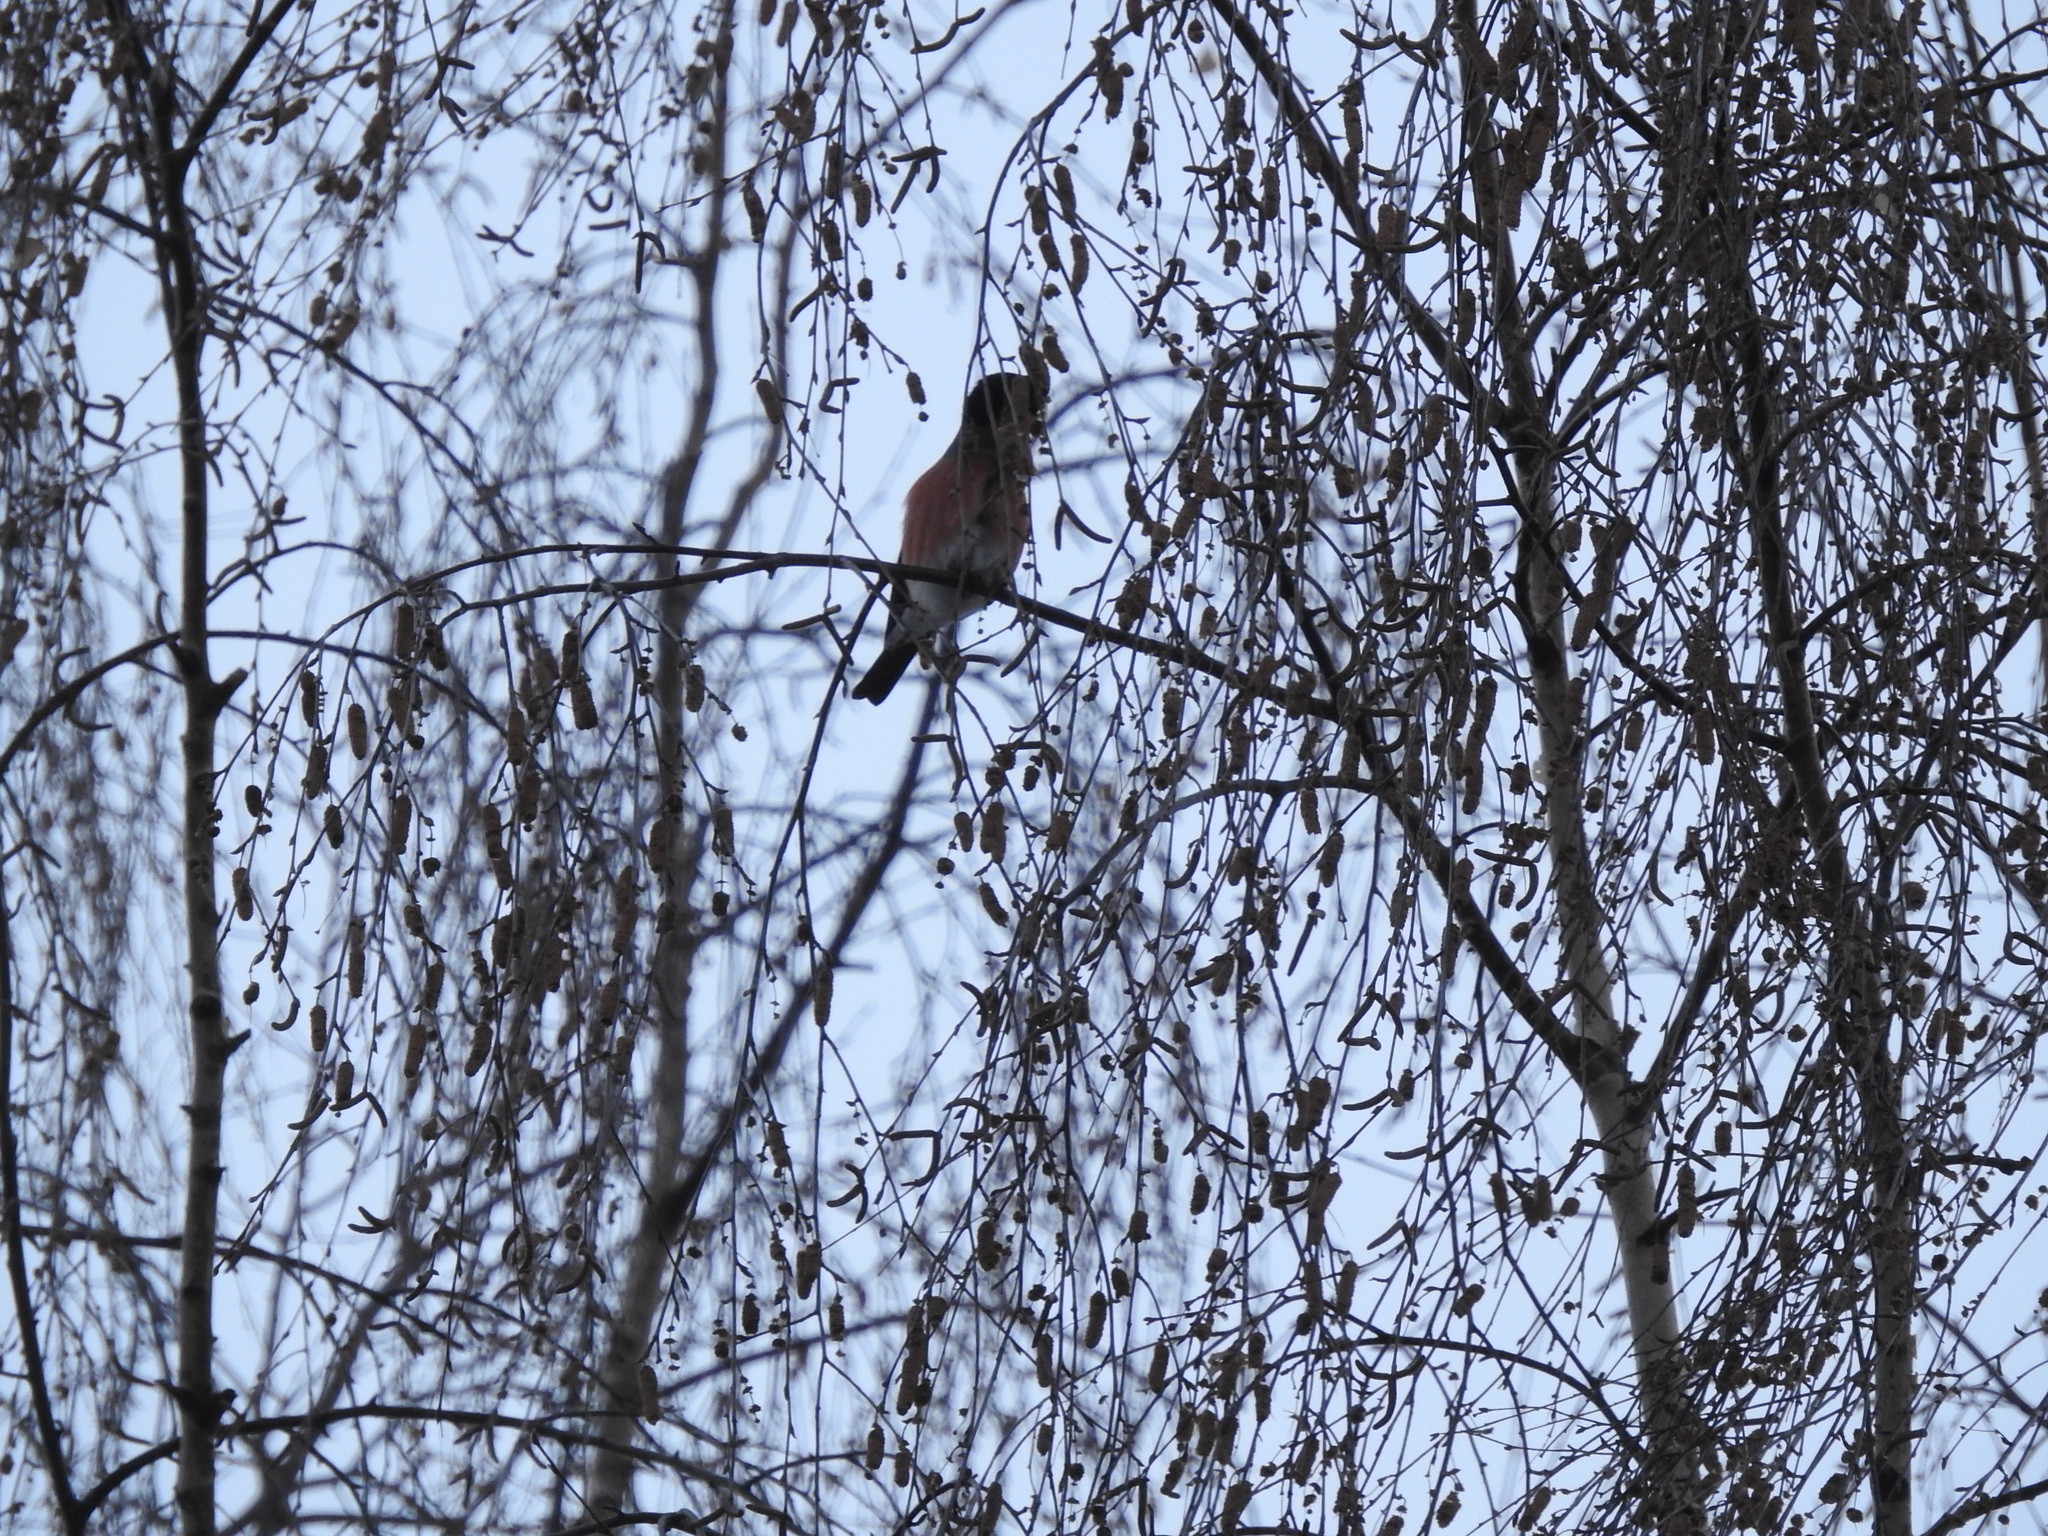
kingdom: Animalia
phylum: Chordata
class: Aves
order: Passeriformes
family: Fringillidae
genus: Pyrrhula
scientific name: Pyrrhula pyrrhula
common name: Eurasian bullfinch
